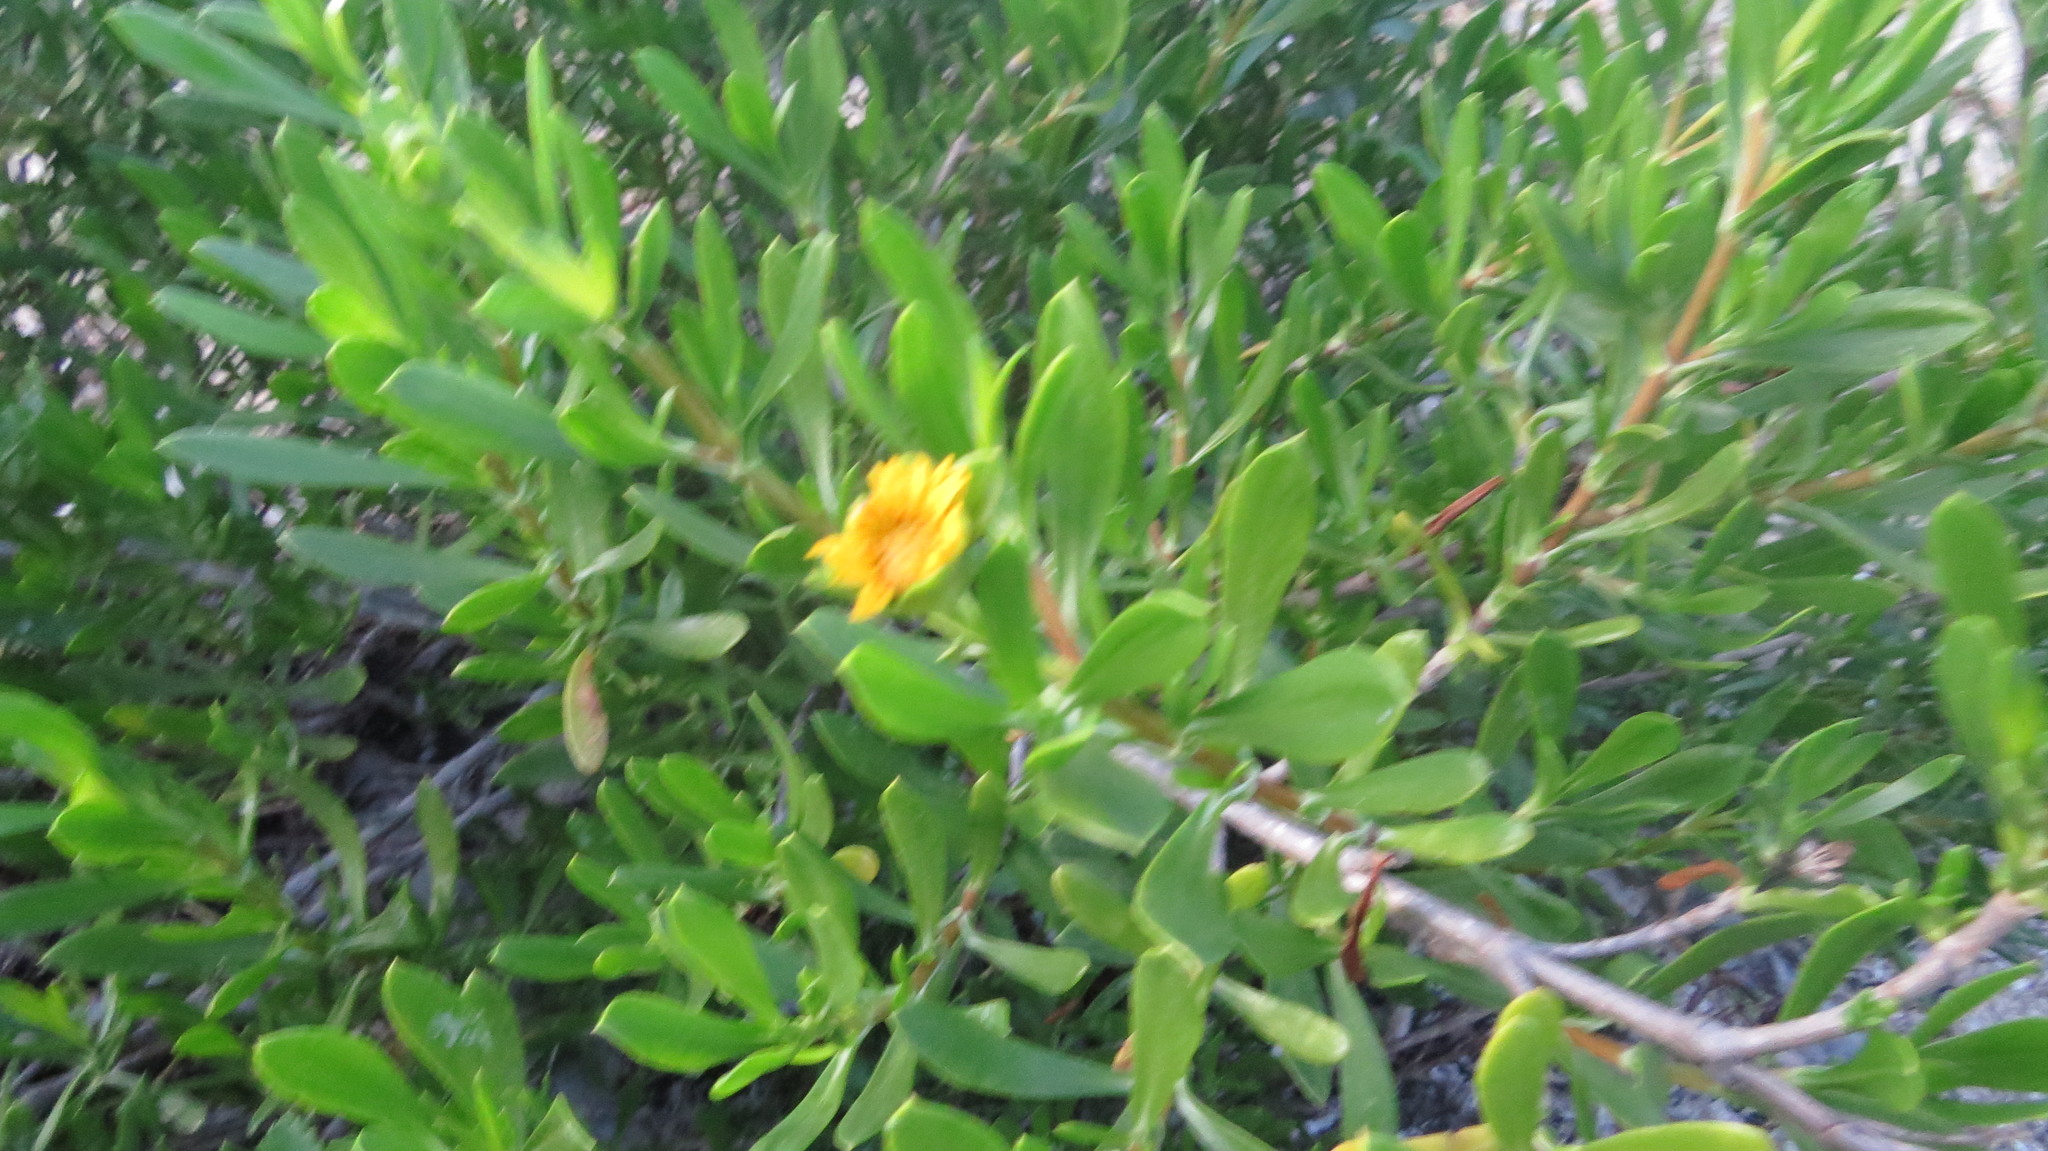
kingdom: Plantae
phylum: Tracheophyta
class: Magnoliopsida
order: Asterales
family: Asteraceae
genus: Borrichia
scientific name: Borrichia arborescens
